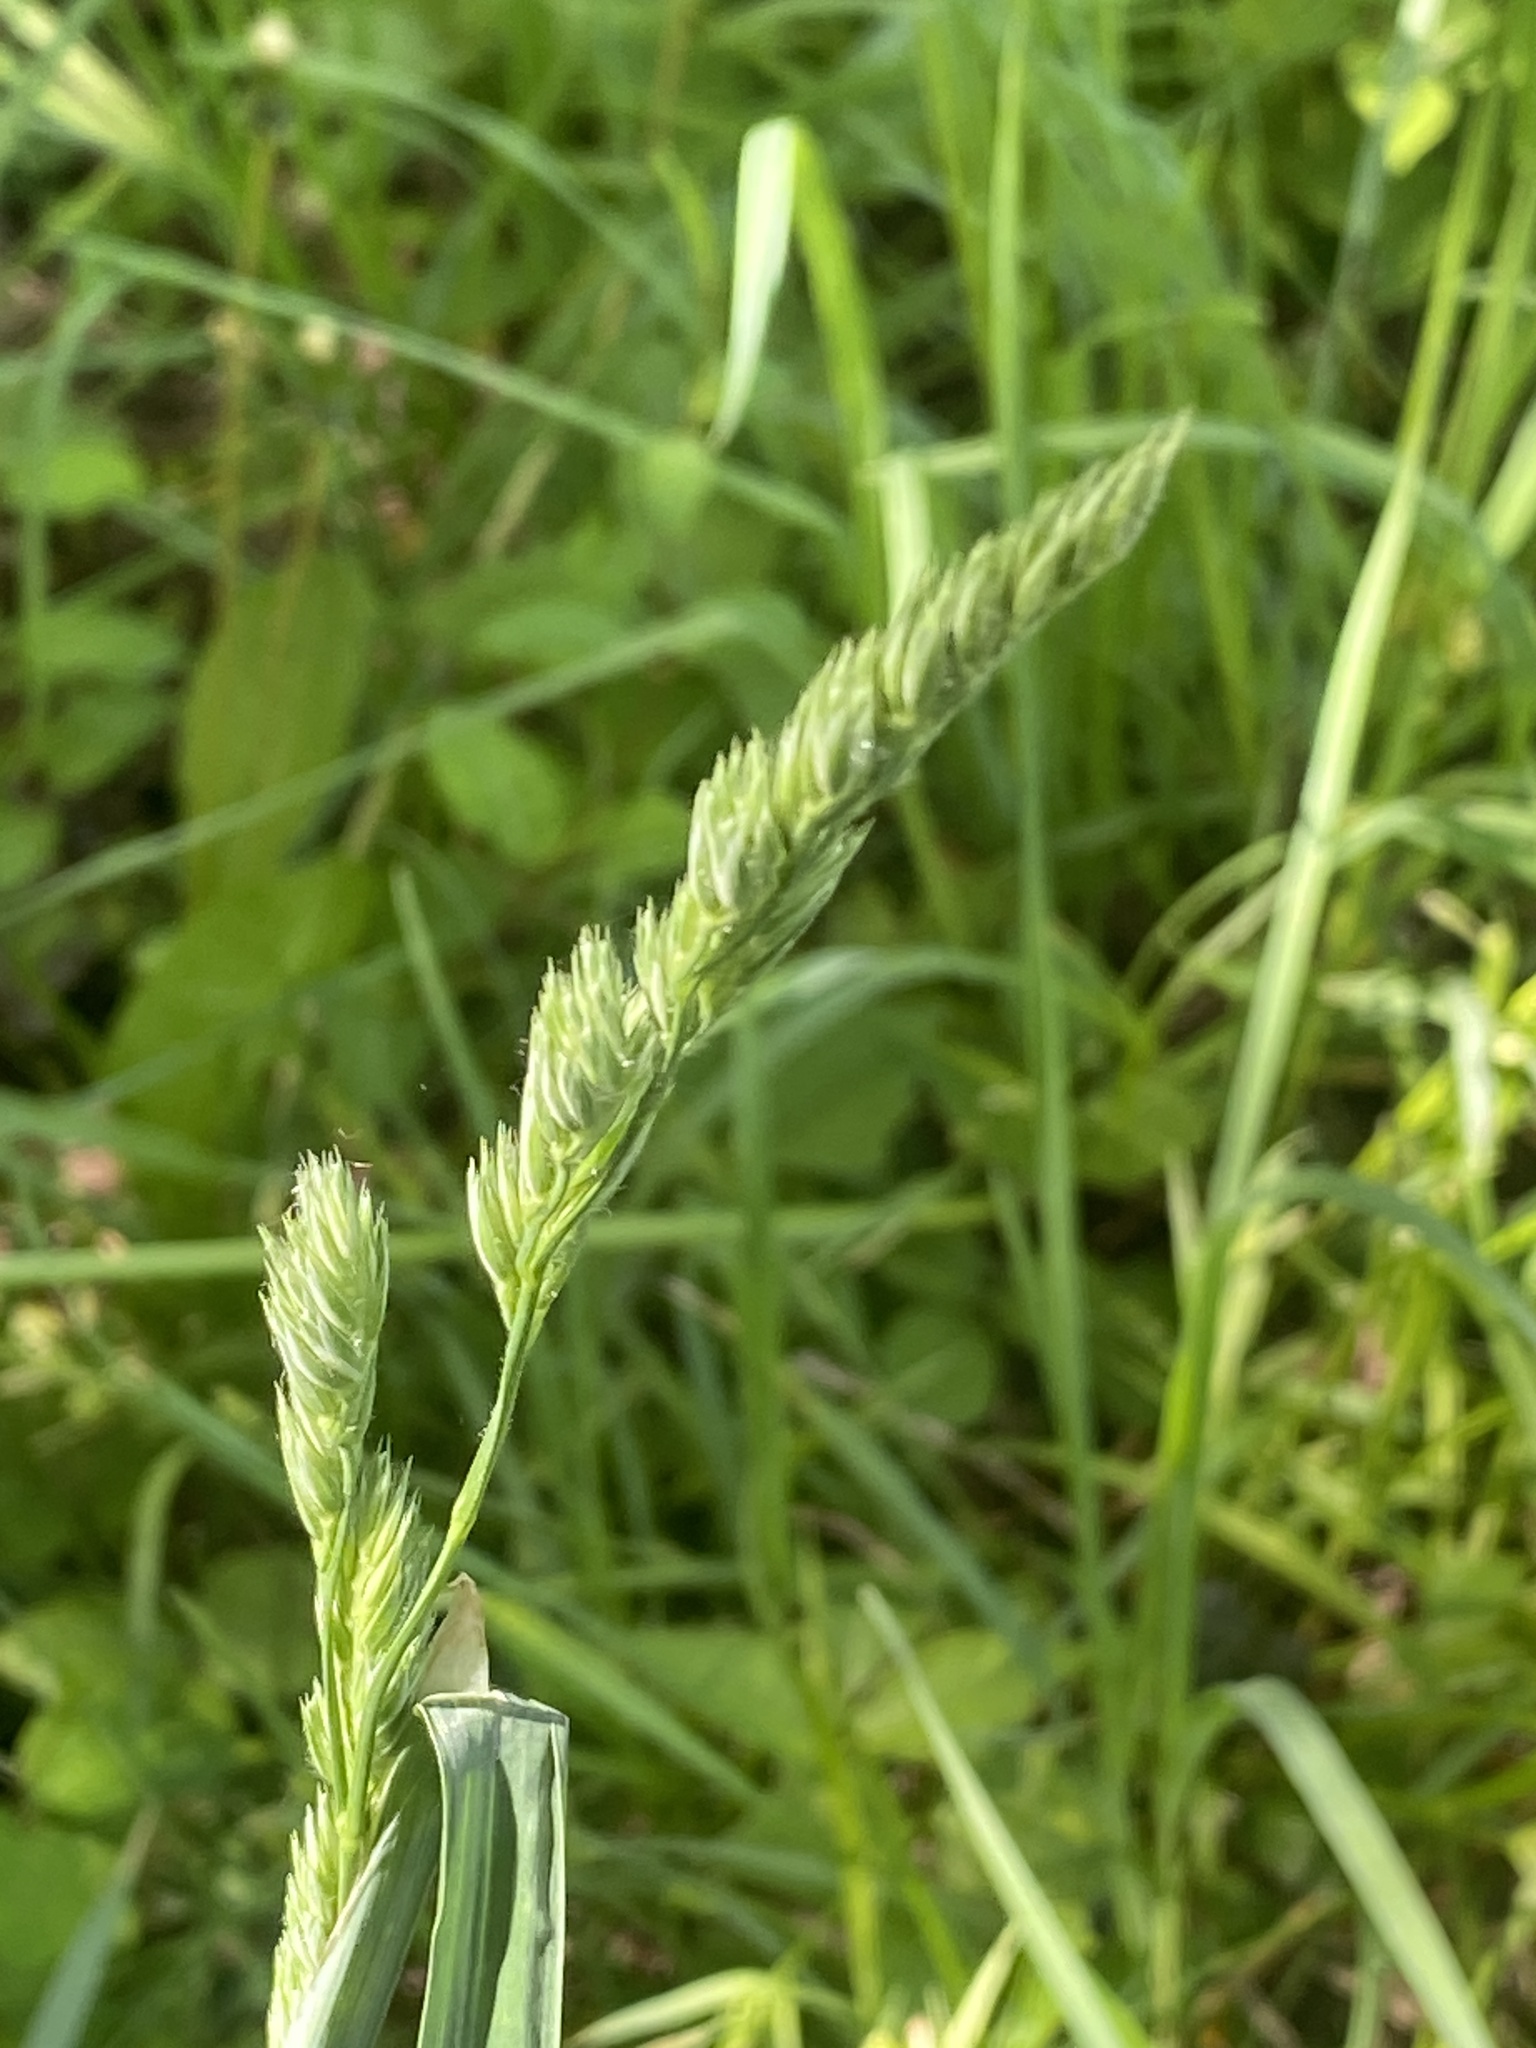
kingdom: Plantae
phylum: Tracheophyta
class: Liliopsida
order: Poales
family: Poaceae
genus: Dactylis
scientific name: Dactylis glomerata
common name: Orchardgrass
